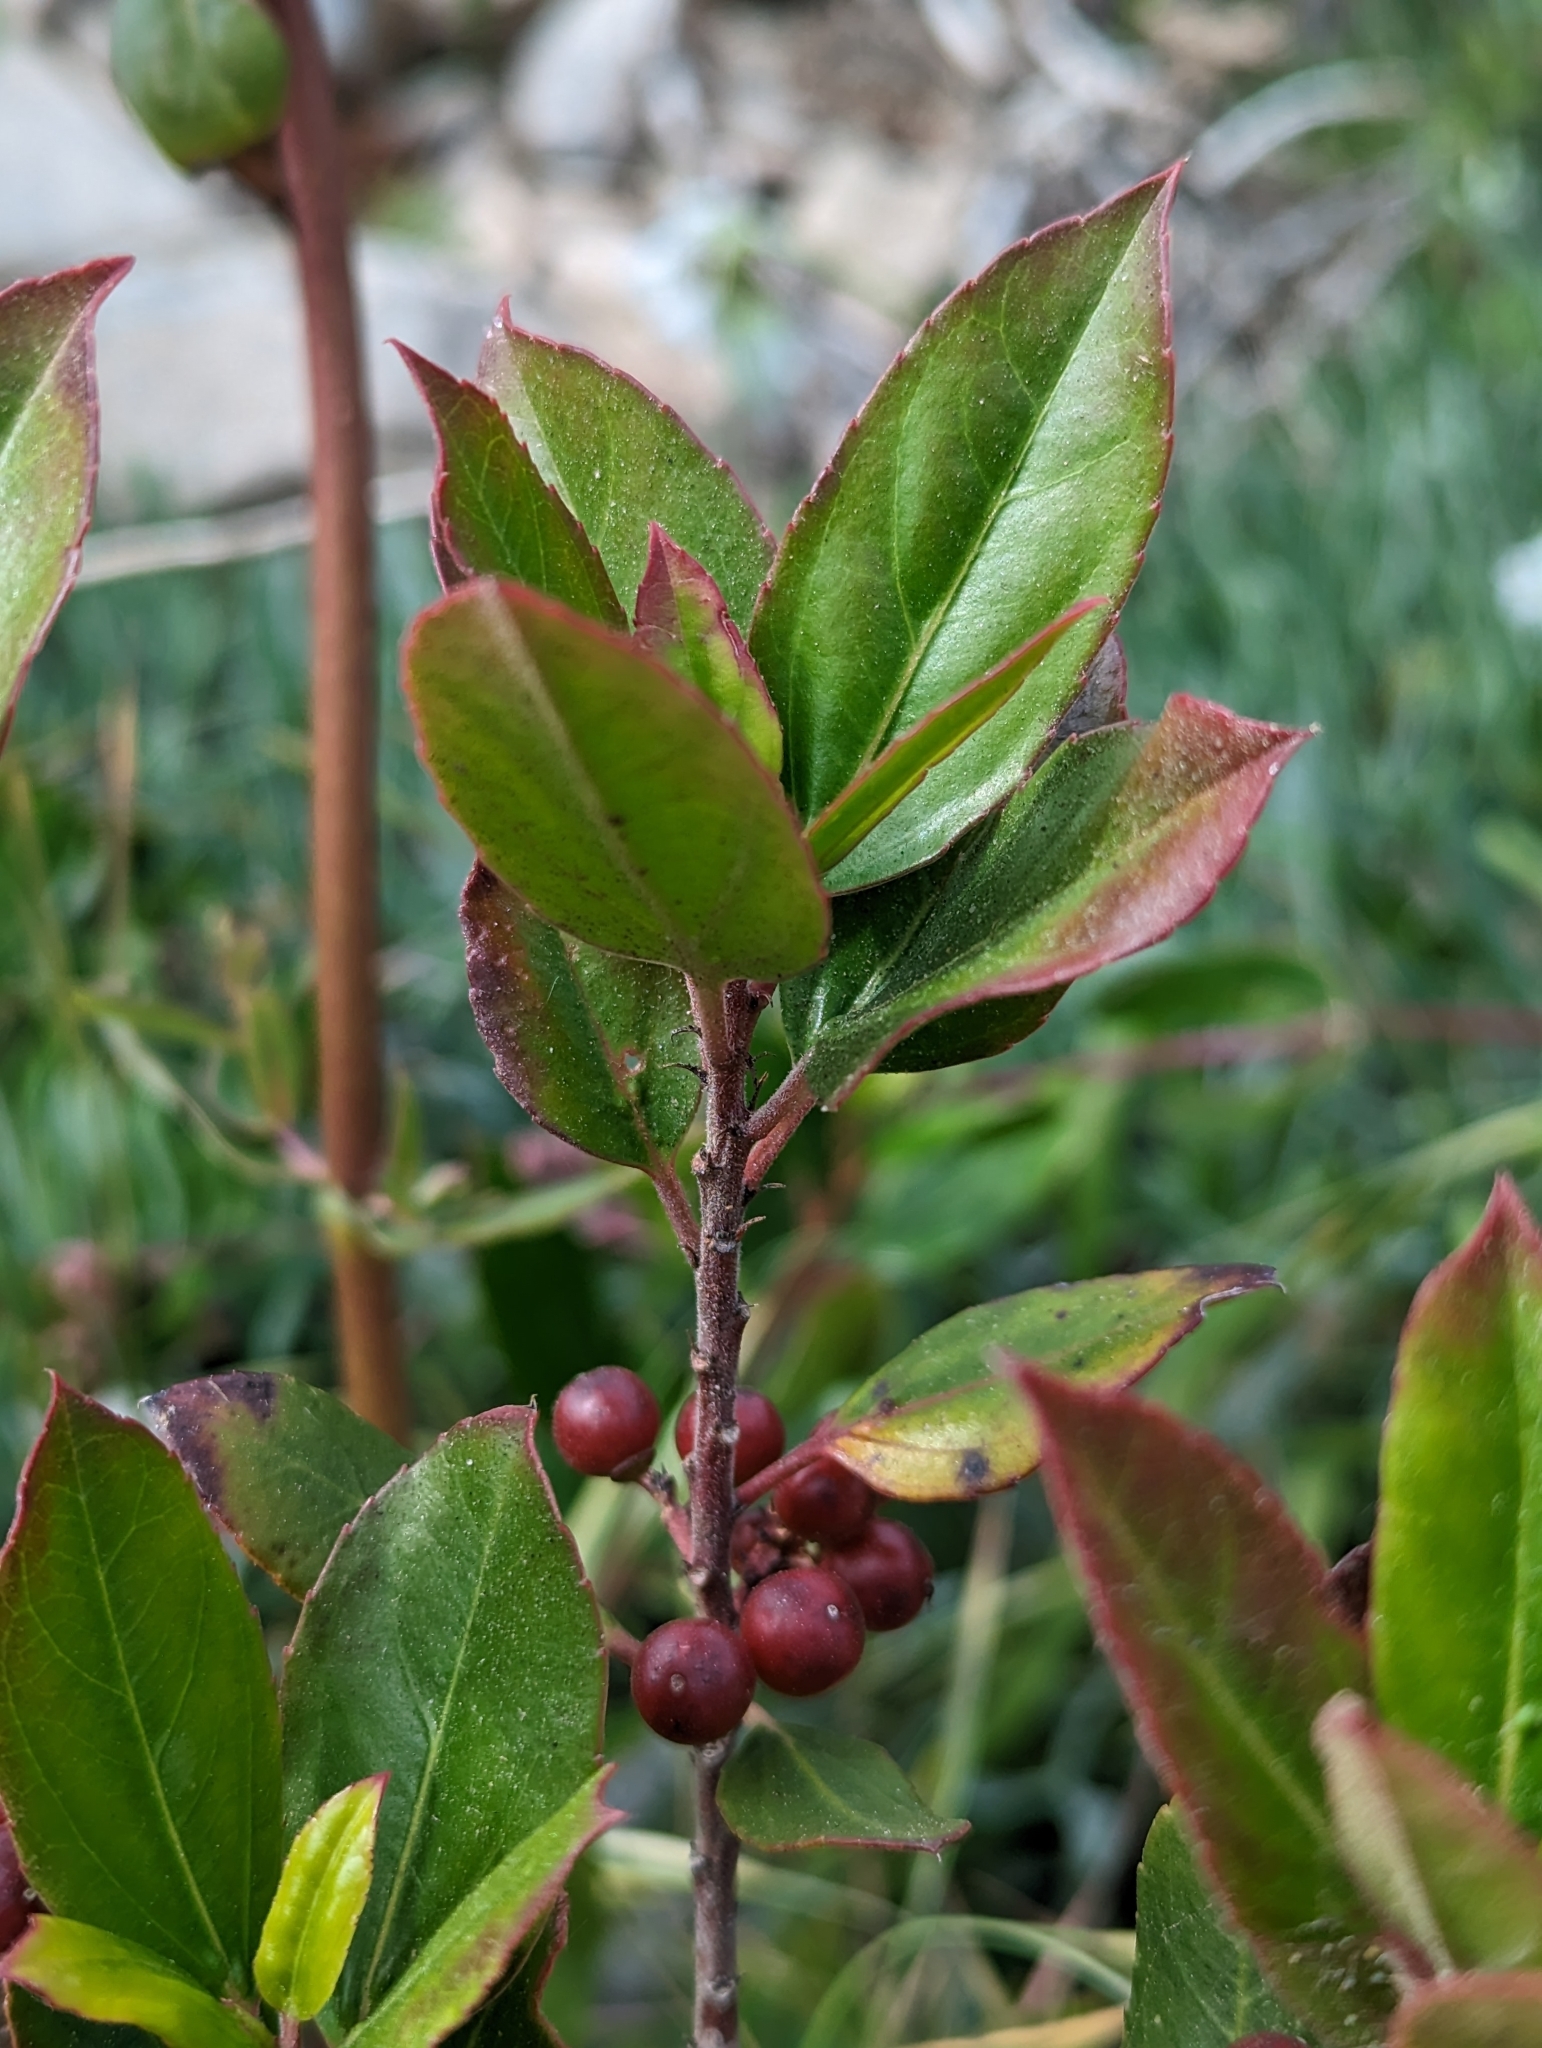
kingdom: Plantae
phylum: Tracheophyta
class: Magnoliopsida
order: Rosales
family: Rhamnaceae
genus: Rhamnus
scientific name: Rhamnus alaternus
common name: Mediterranean buckthorn
